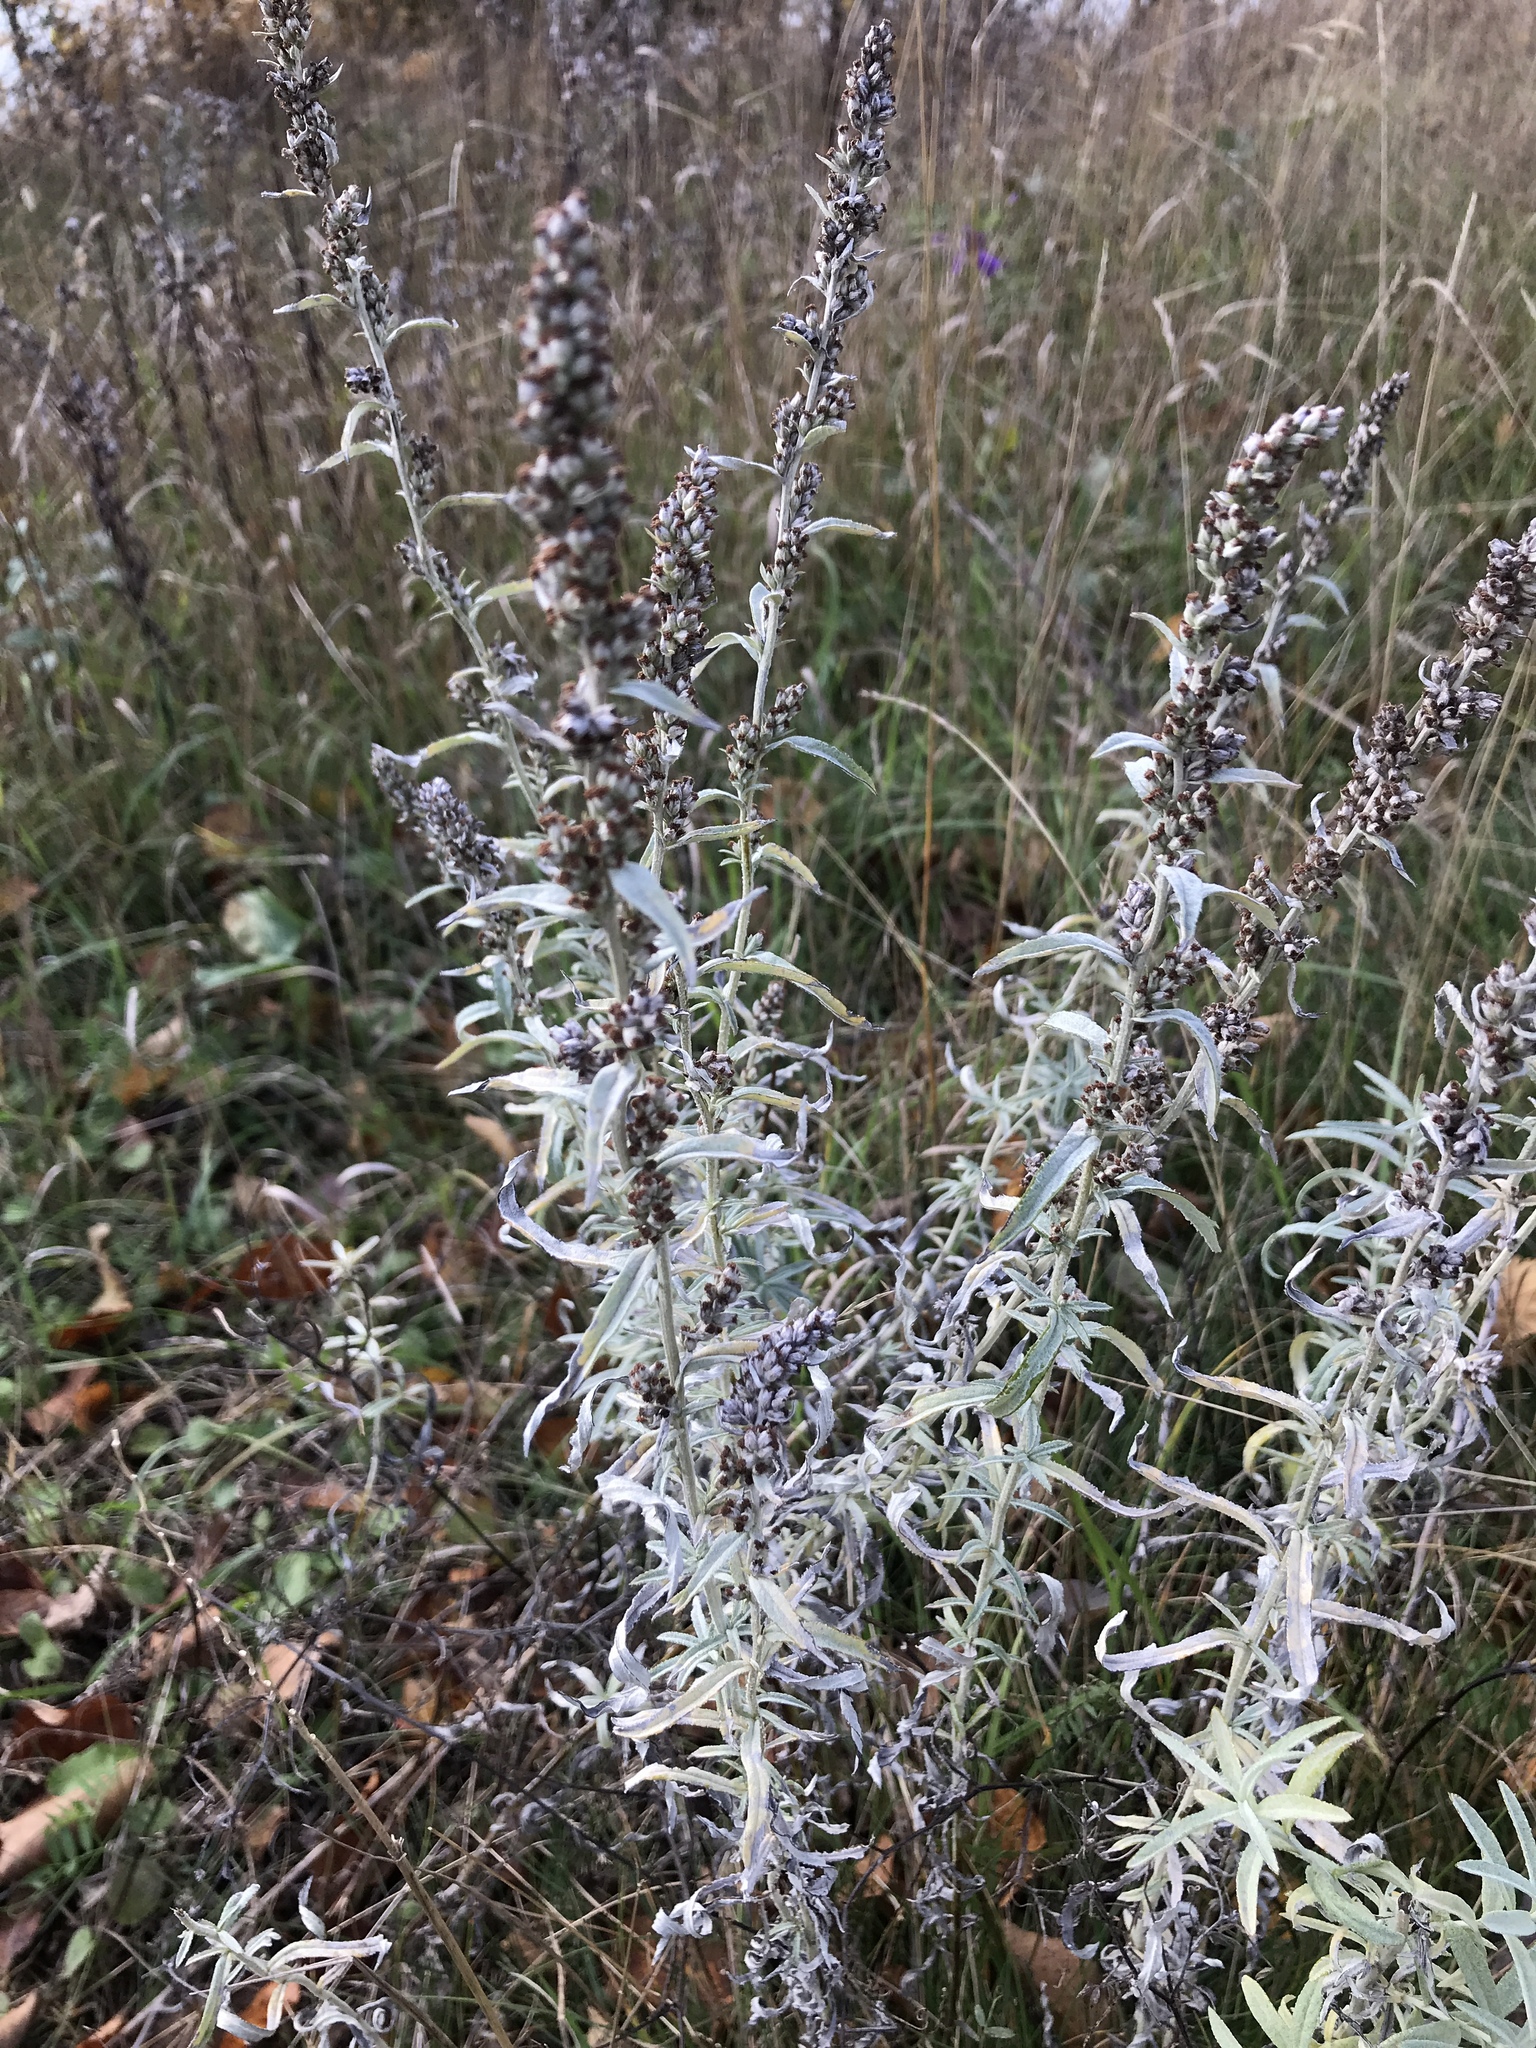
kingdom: Plantae
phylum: Tracheophyta
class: Magnoliopsida
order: Asterales
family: Asteraceae
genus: Artemisia
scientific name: Artemisia ludoviciana
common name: Western mugwort
